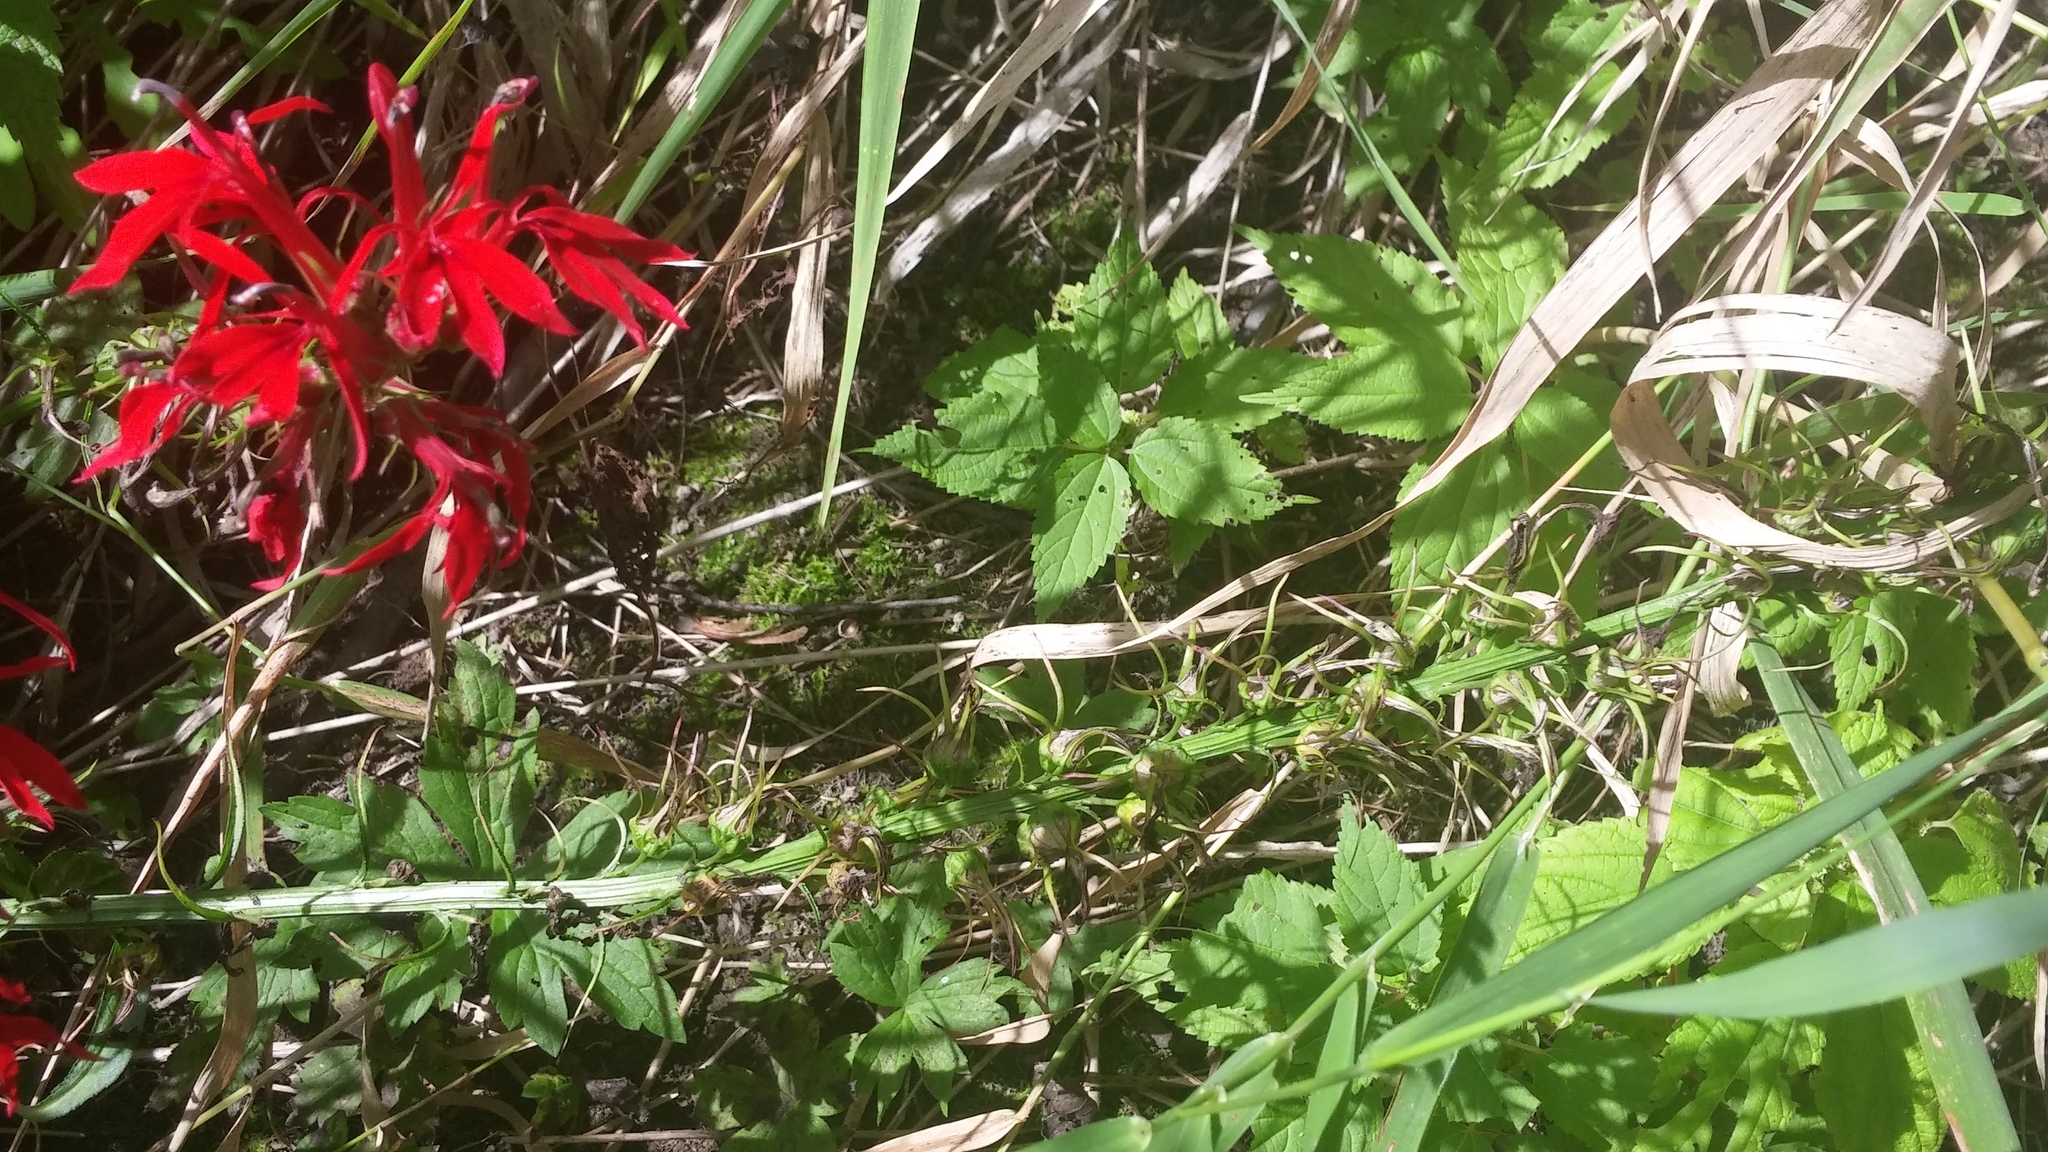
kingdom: Plantae
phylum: Tracheophyta
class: Magnoliopsida
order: Asterales
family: Campanulaceae
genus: Lobelia
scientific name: Lobelia cardinalis
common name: Cardinal flower
